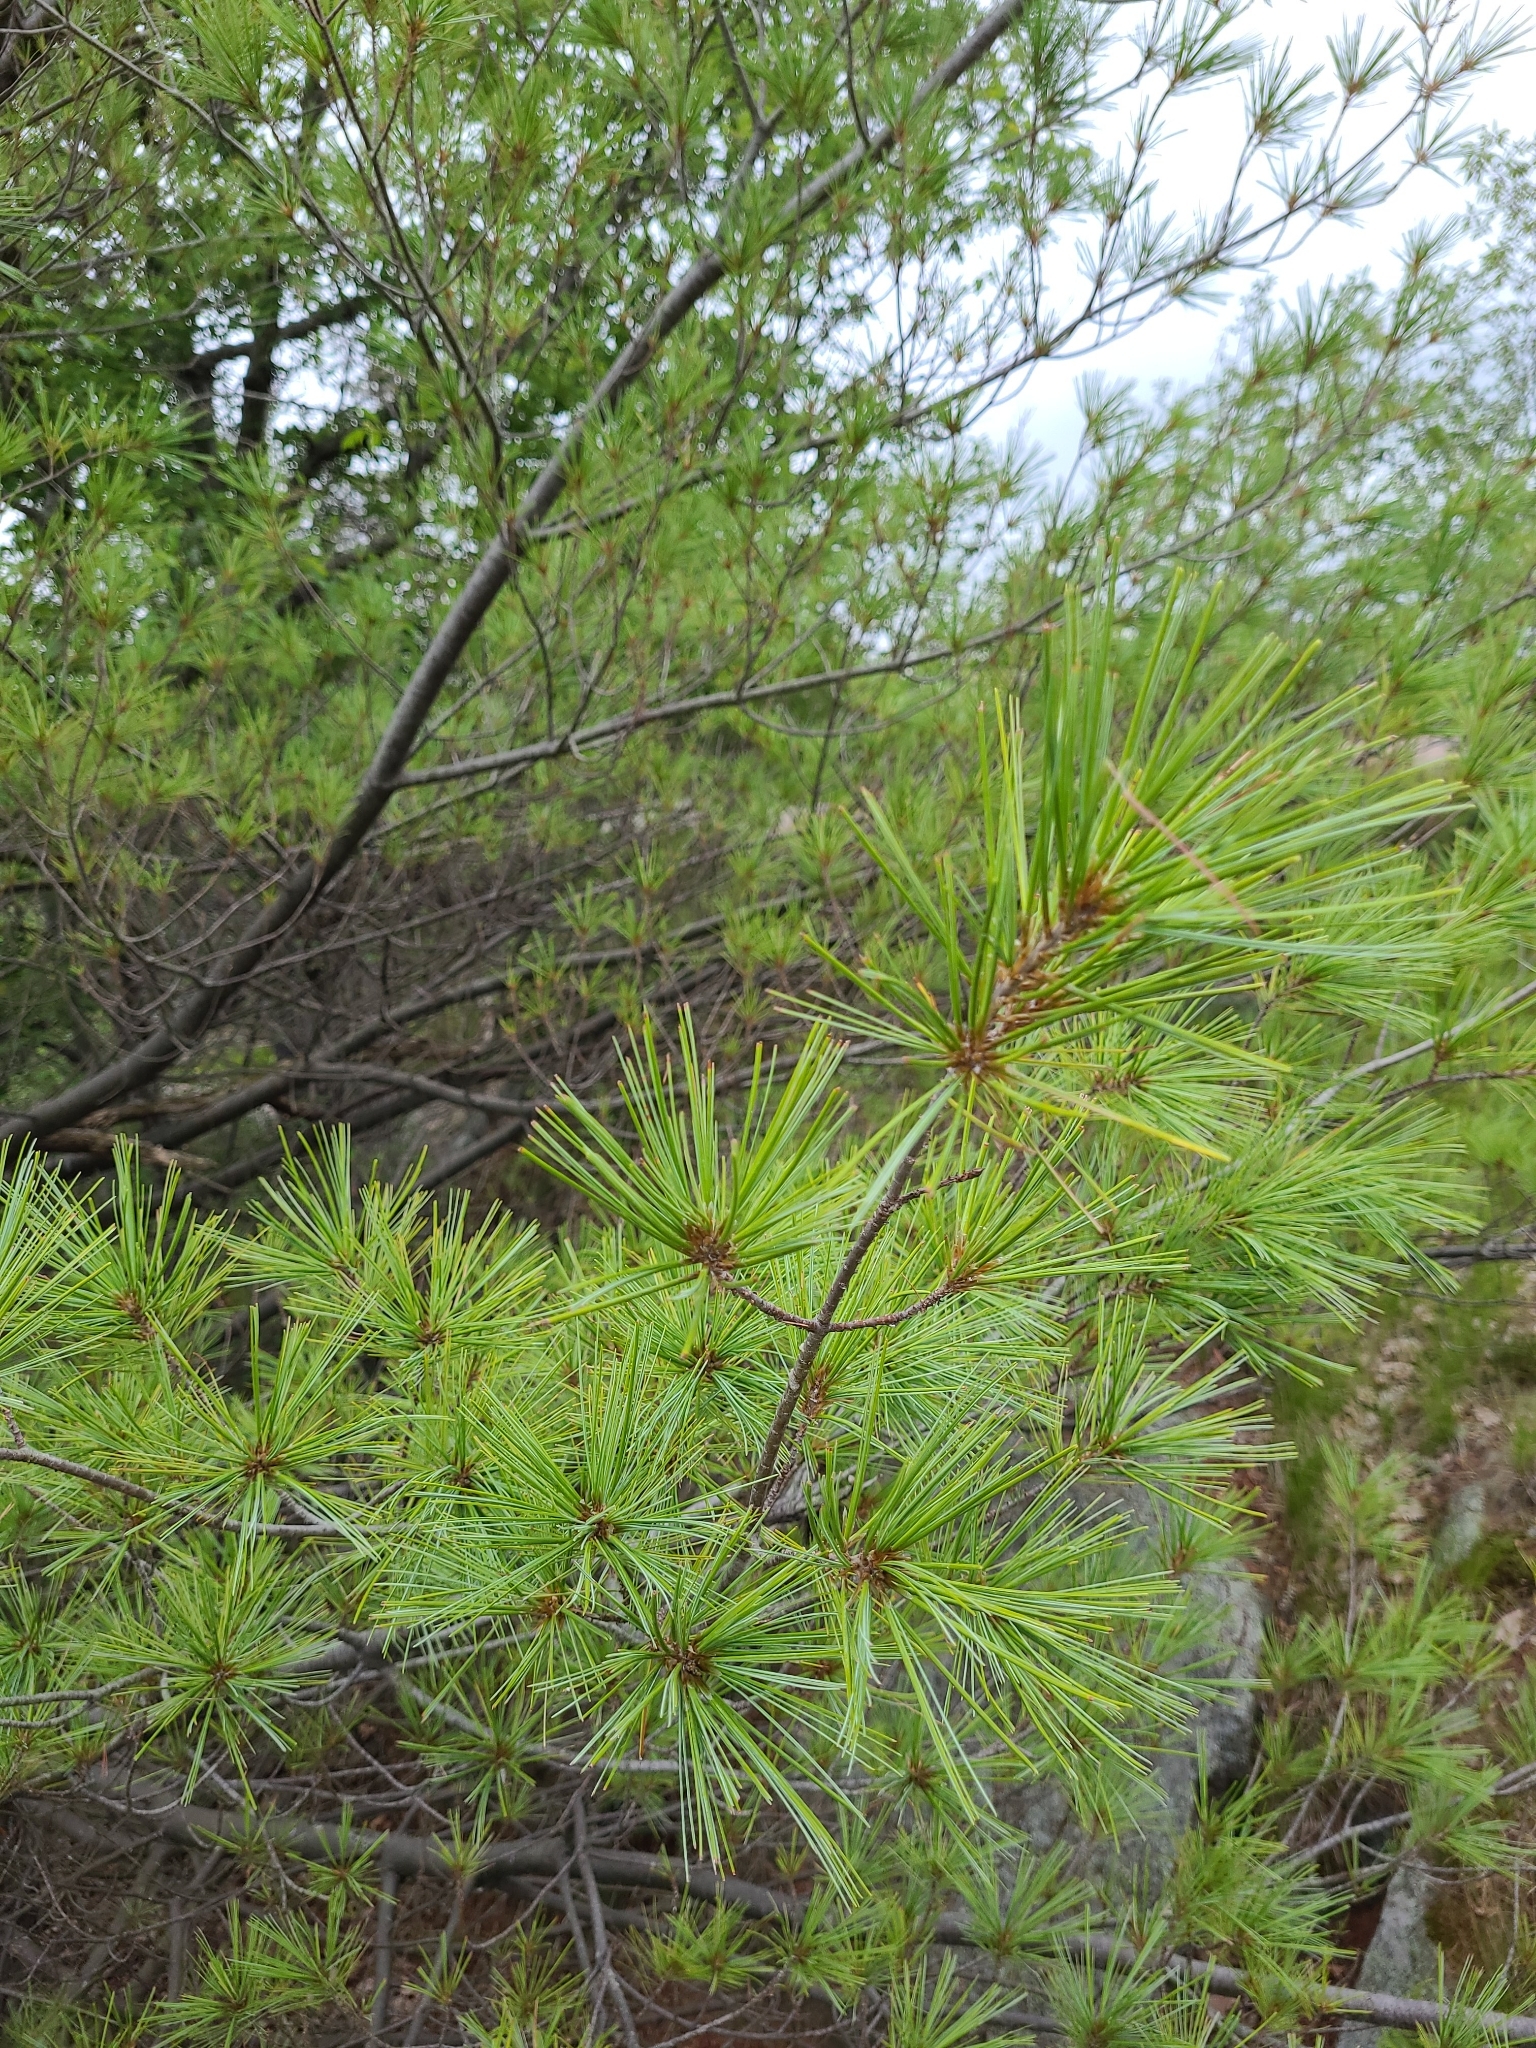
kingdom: Plantae
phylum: Tracheophyta
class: Pinopsida
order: Pinales
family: Pinaceae
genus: Pinus
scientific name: Pinus strobus
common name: Weymouth pine
